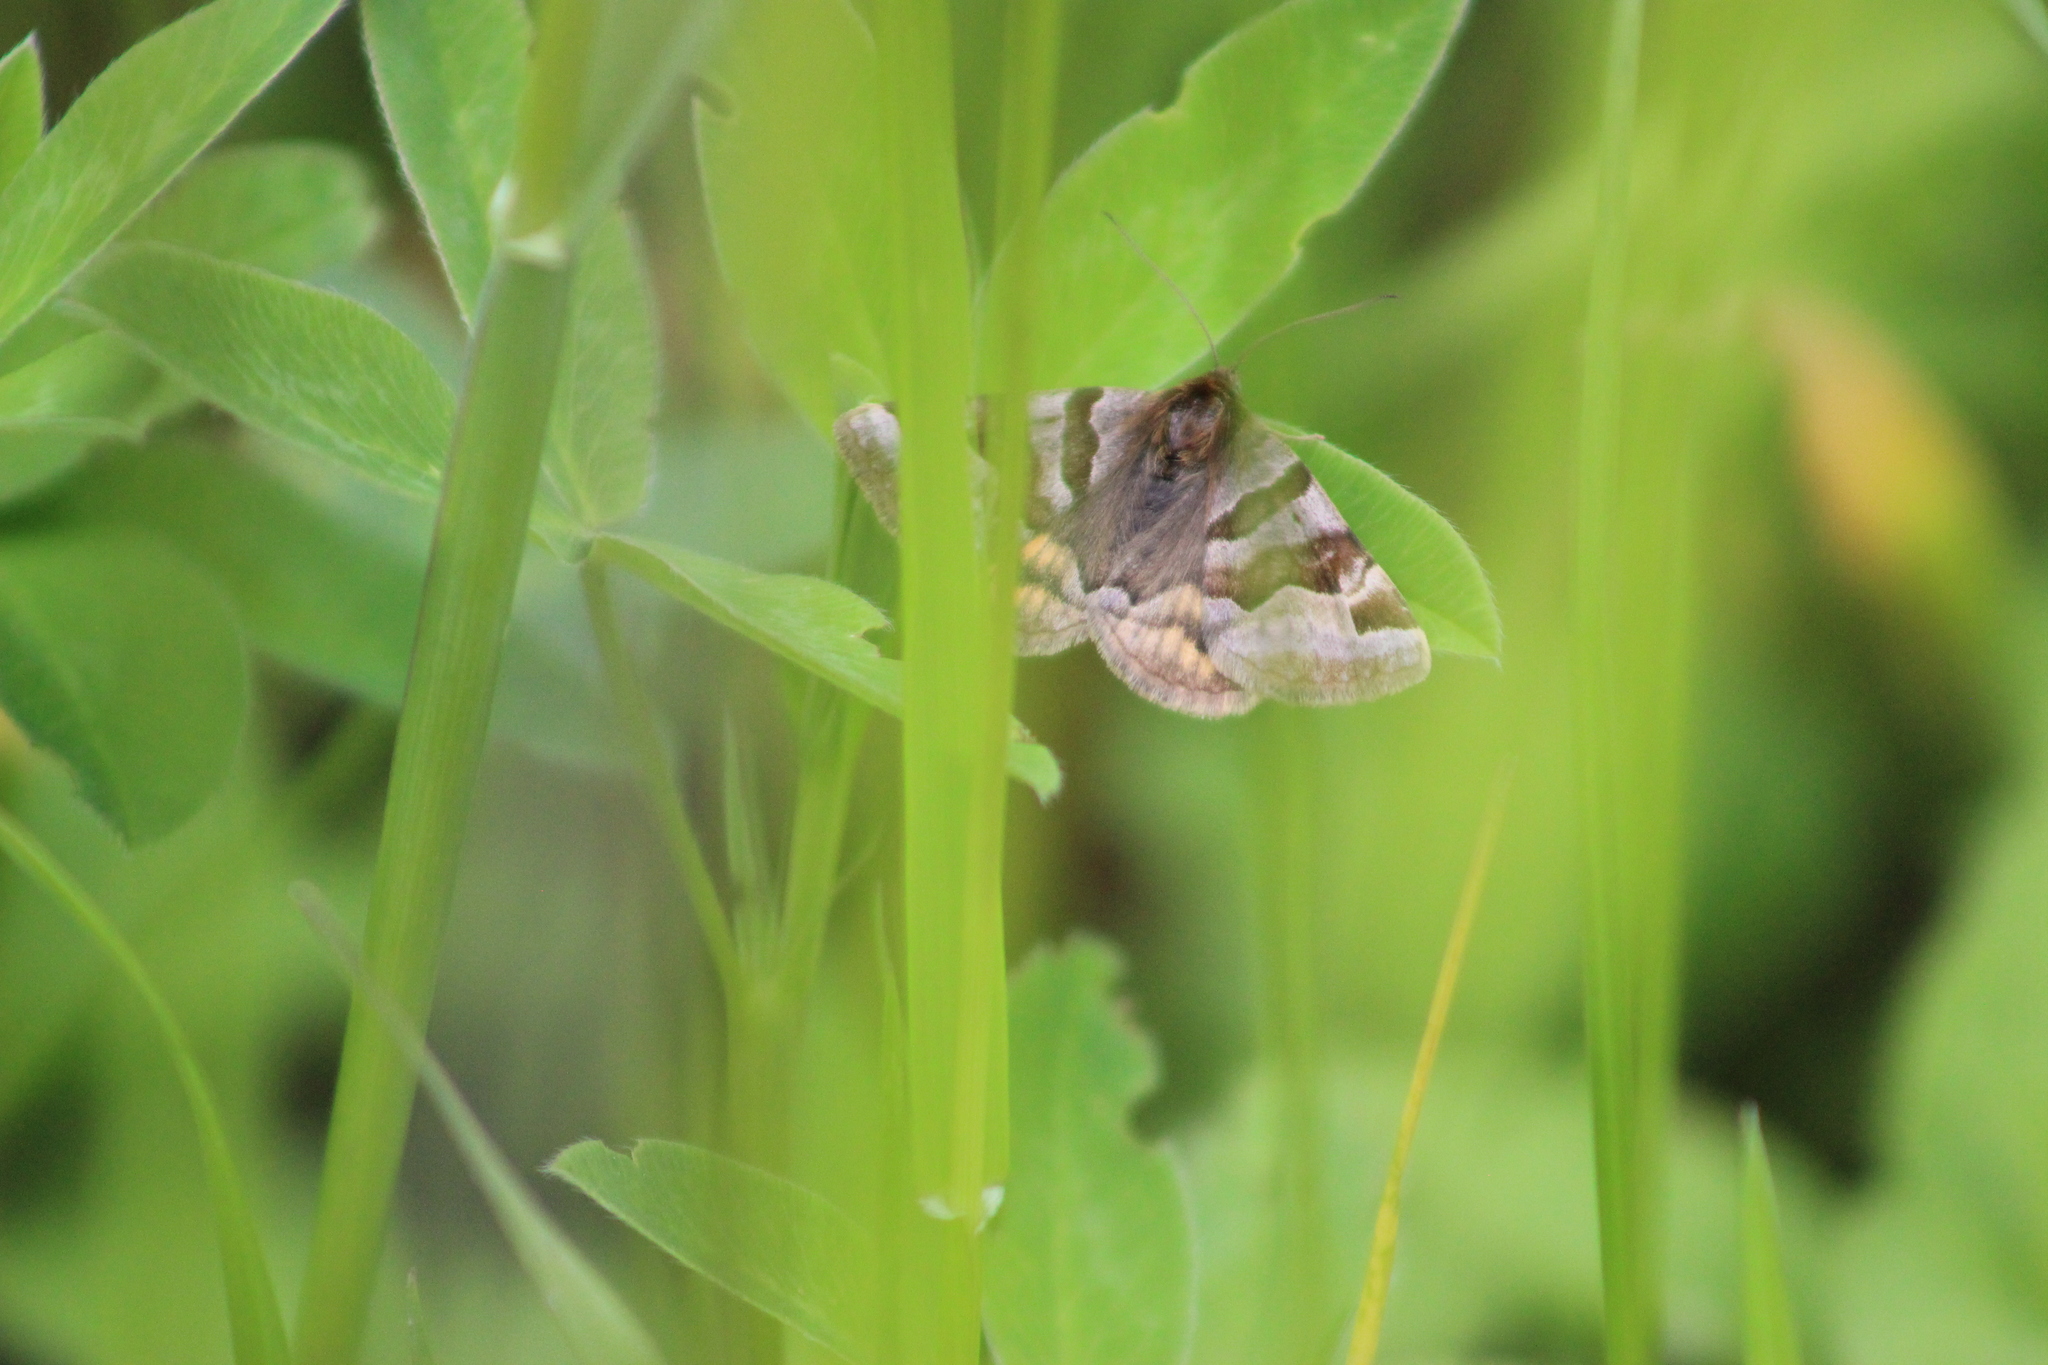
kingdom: Animalia
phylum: Arthropoda
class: Insecta
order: Lepidoptera
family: Erebidae
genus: Euclidia
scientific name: Euclidia glyphica
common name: Burnet companion
